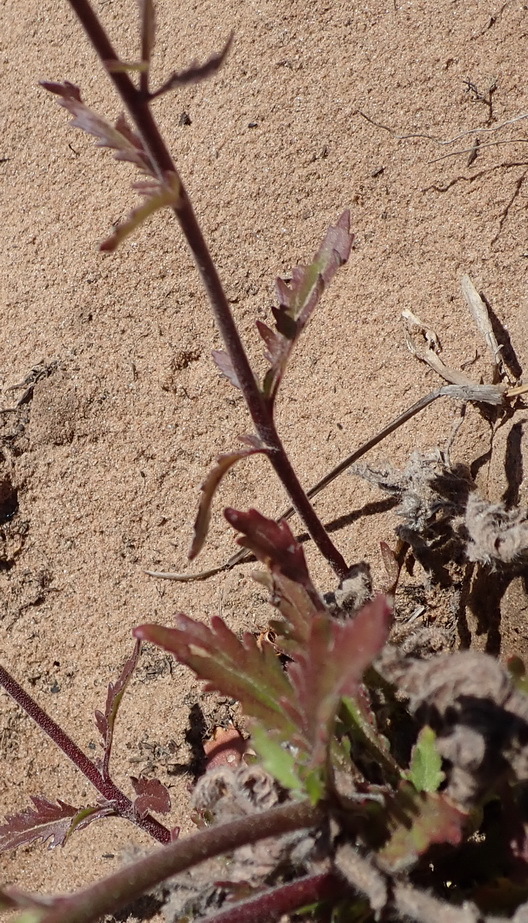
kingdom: Plantae
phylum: Tracheophyta
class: Magnoliopsida
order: Lamiales
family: Scrophulariaceae
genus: Manulea
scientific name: Manulea cheiranthus
